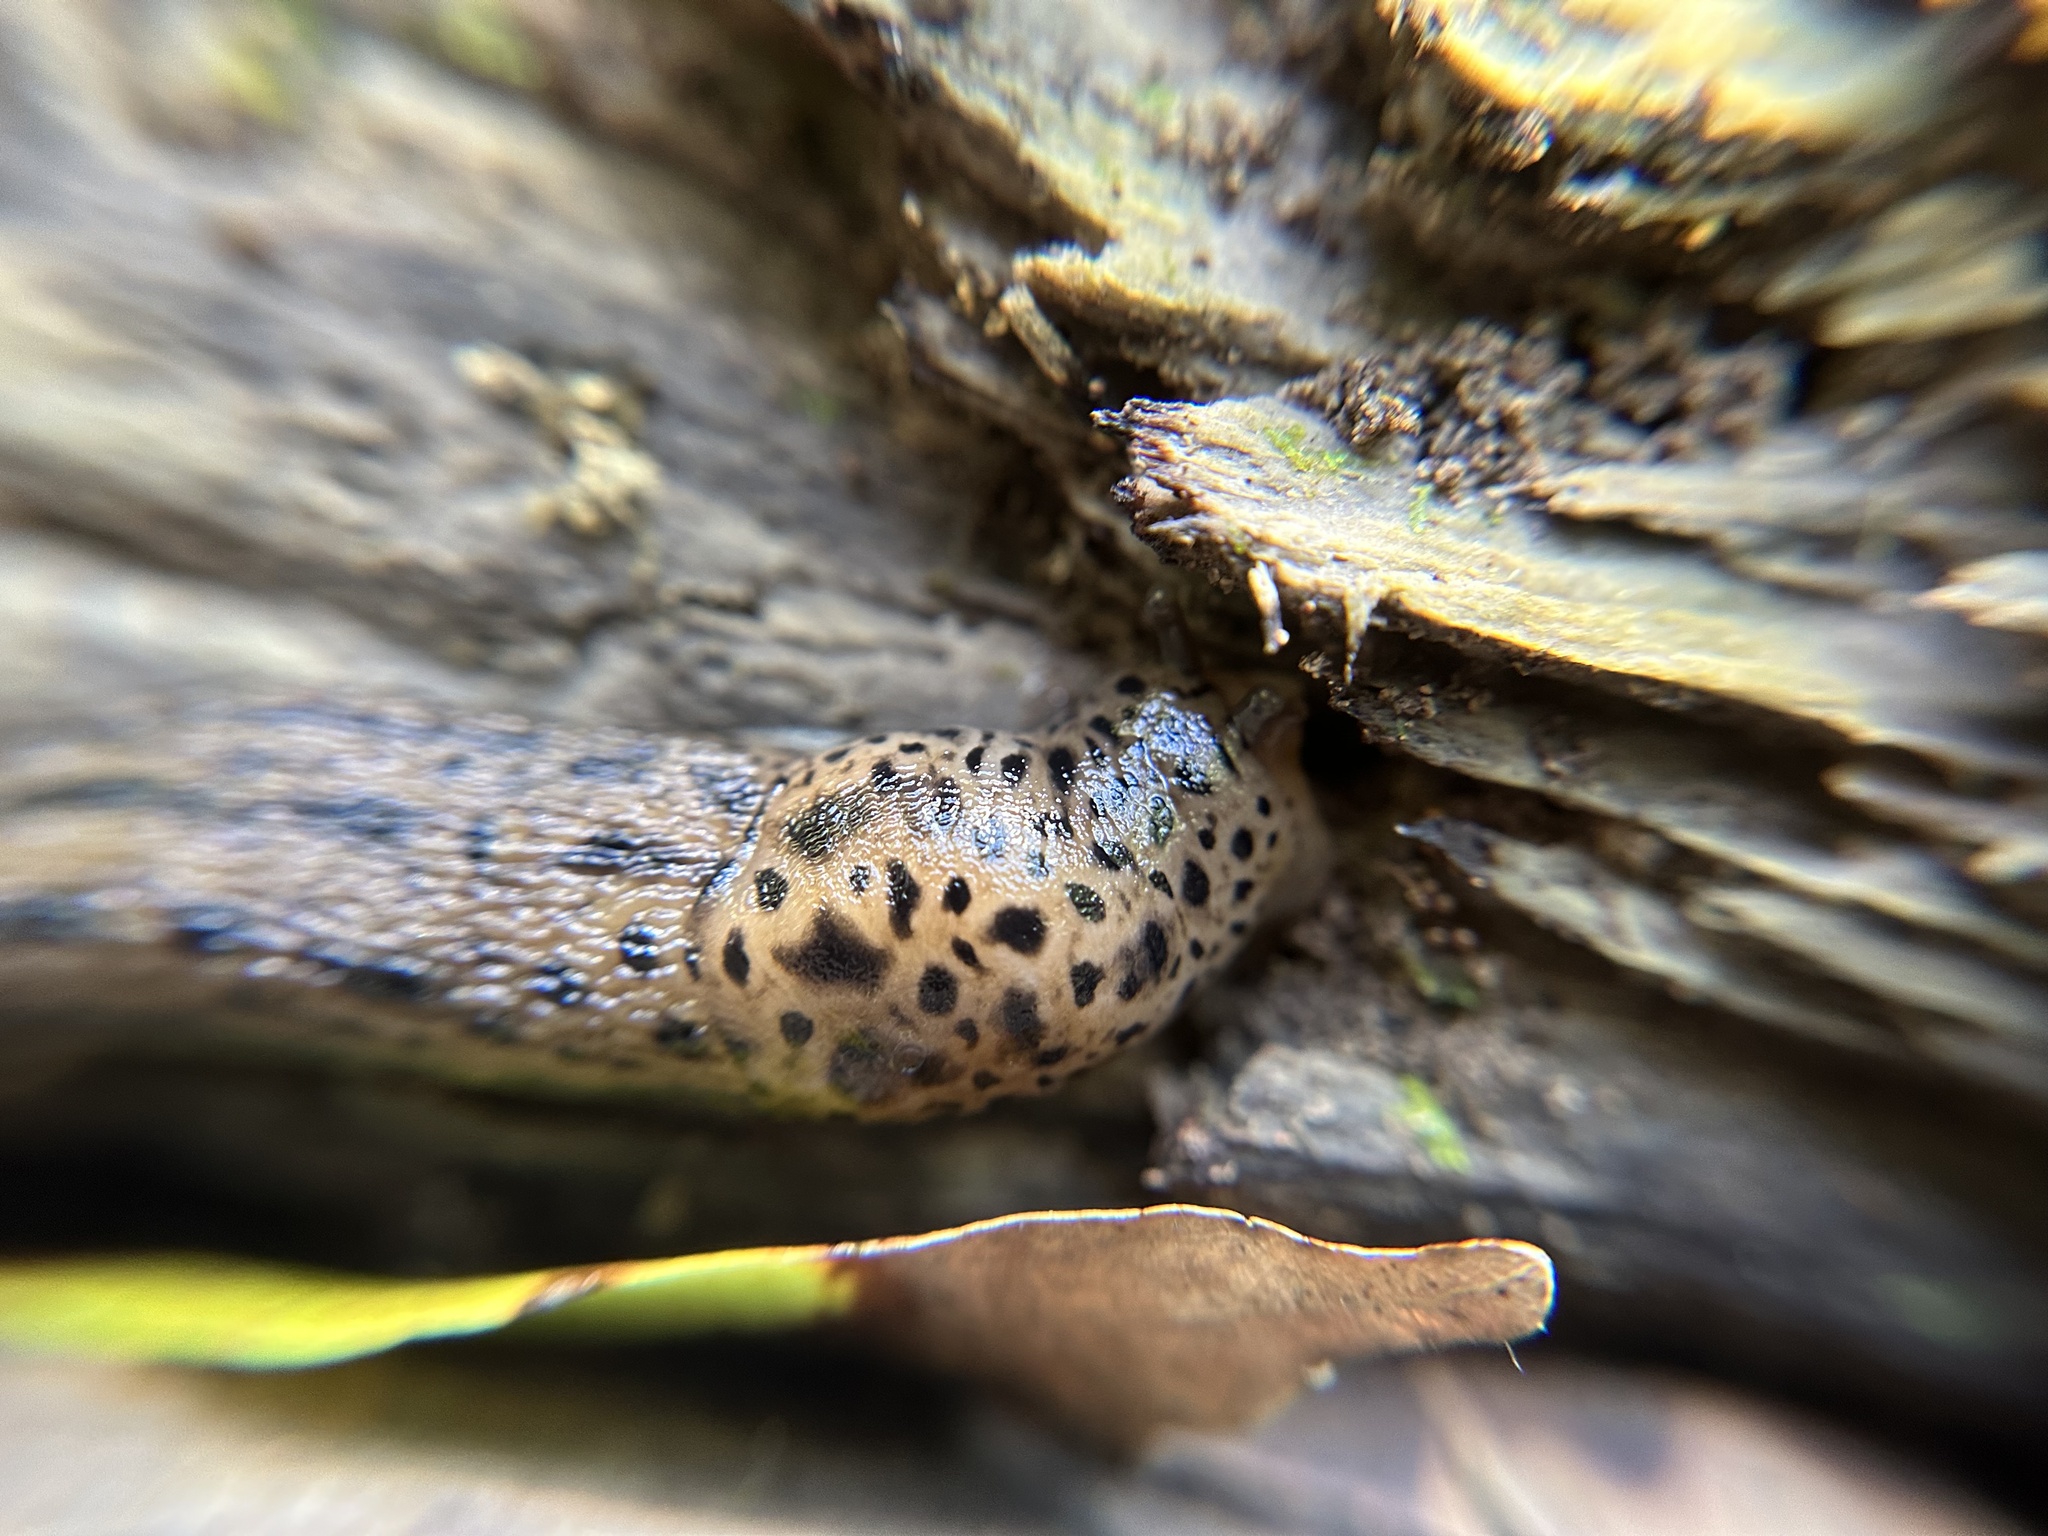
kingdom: Animalia
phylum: Mollusca
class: Gastropoda
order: Stylommatophora
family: Limacidae
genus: Limax
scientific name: Limax maximus
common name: Great grey slug
